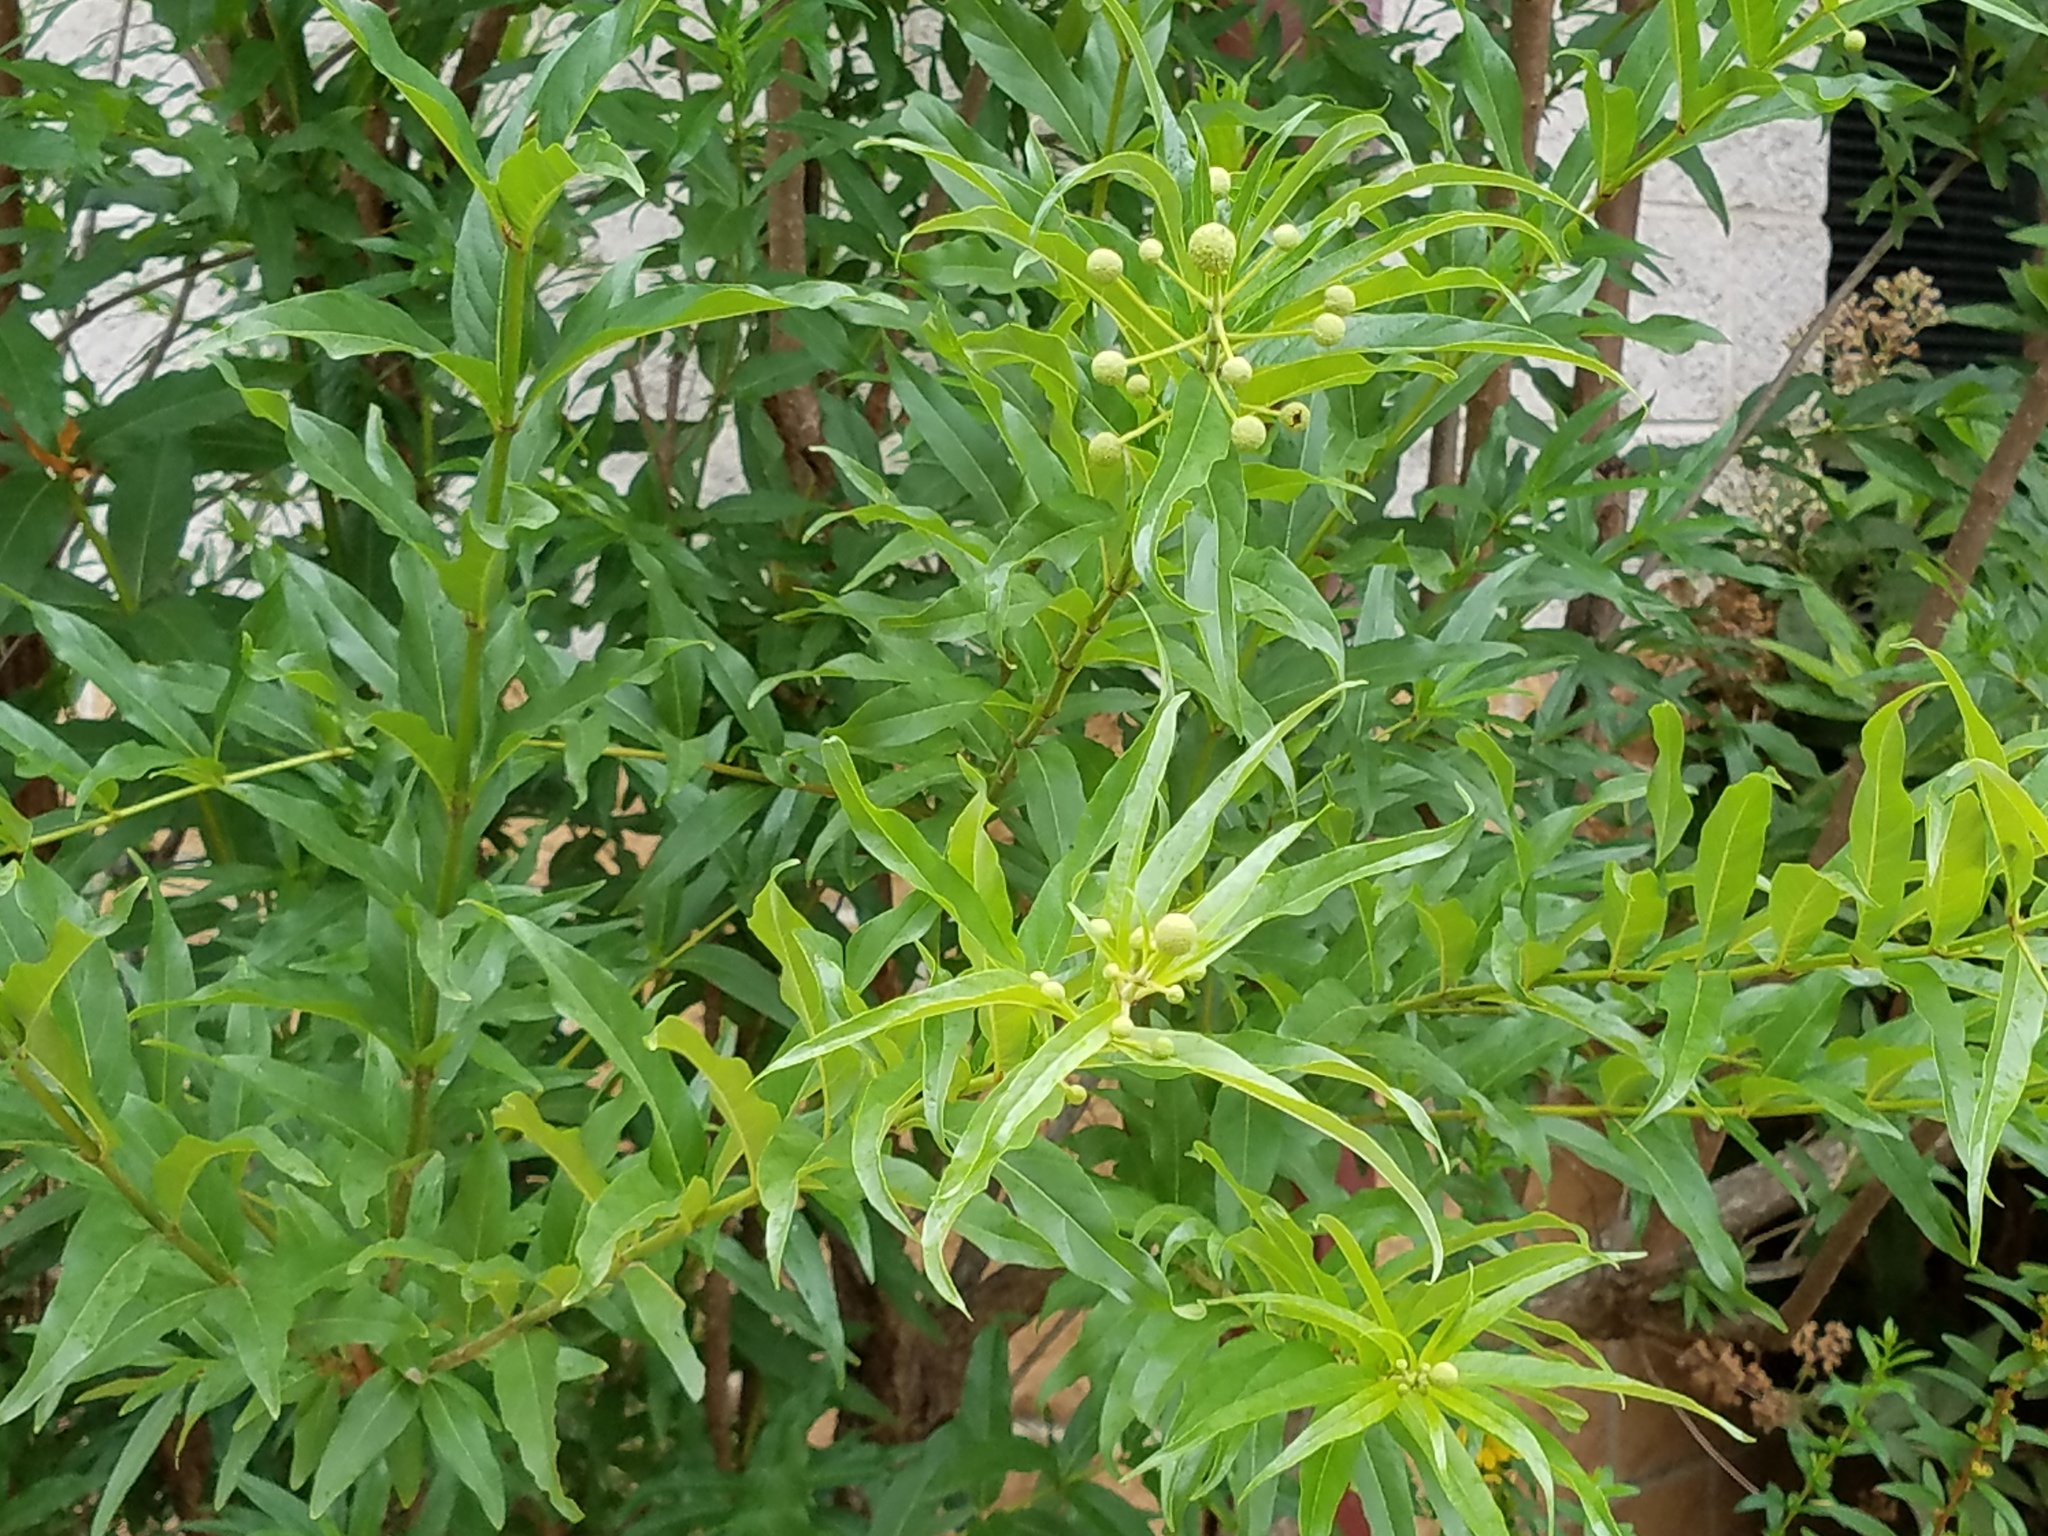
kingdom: Plantae
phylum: Tracheophyta
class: Magnoliopsida
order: Gentianales
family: Rubiaceae
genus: Cephalanthus
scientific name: Cephalanthus salicifolius
